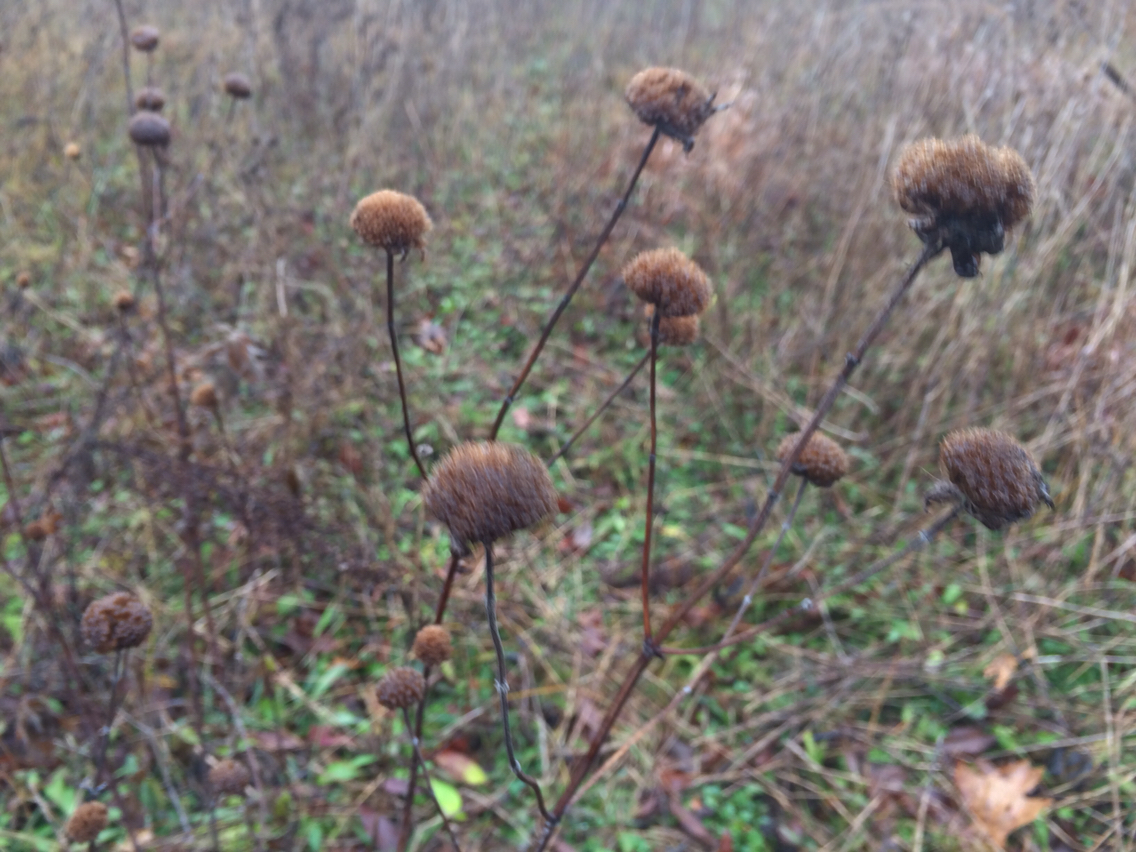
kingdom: Plantae
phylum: Tracheophyta
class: Magnoliopsida
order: Lamiales
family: Lamiaceae
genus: Monarda
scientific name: Monarda fistulosa
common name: Purple beebalm
